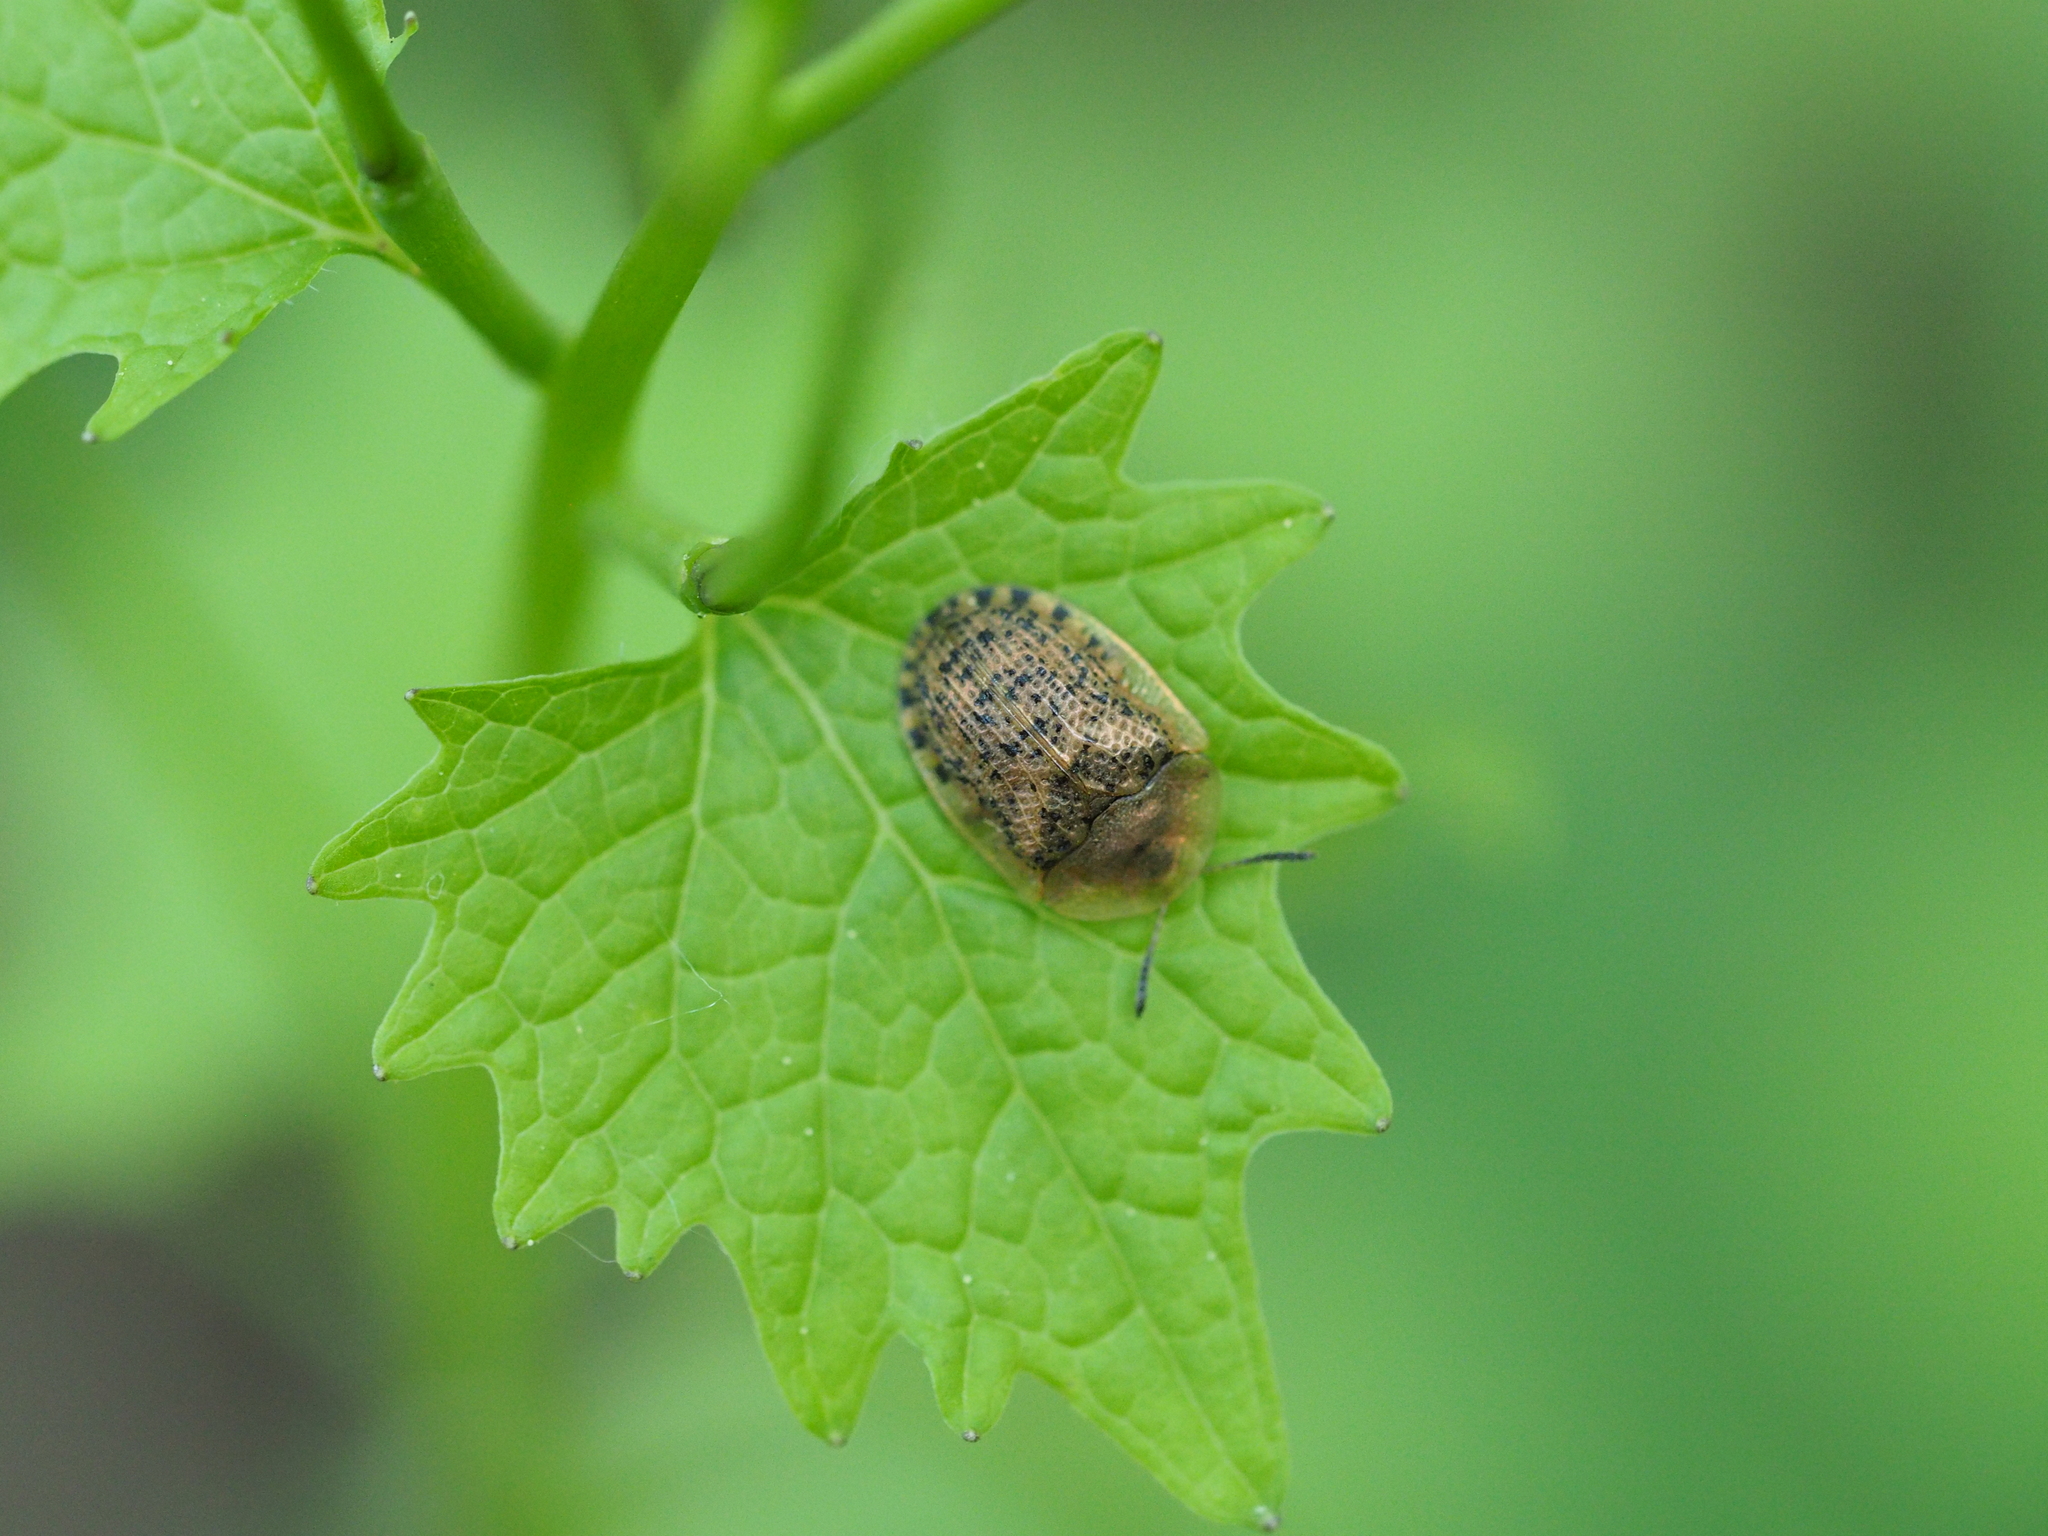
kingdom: Animalia
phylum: Arthropoda
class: Insecta
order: Coleoptera
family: Chrysomelidae
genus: Cassida
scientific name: Cassida nebulosa
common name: Beet tortoise beetle
